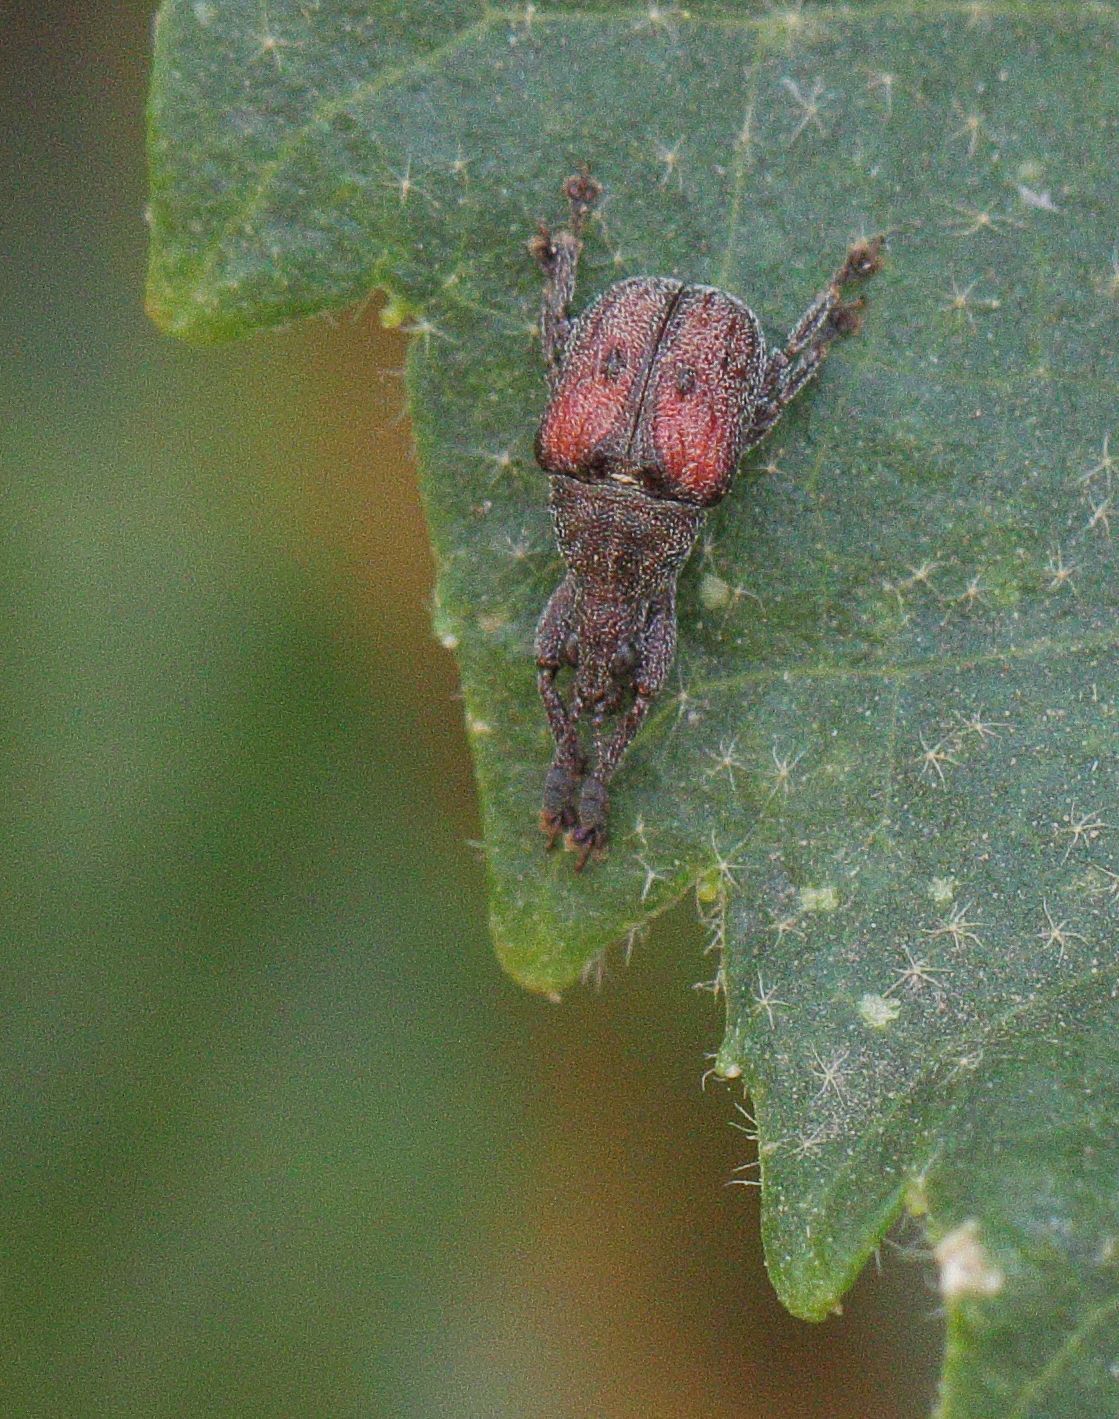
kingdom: Animalia
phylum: Arthropoda
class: Insecta
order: Coleoptera
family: Attelabidae
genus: Scotopsinus
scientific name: Scotopsinus bituberculatipennis
